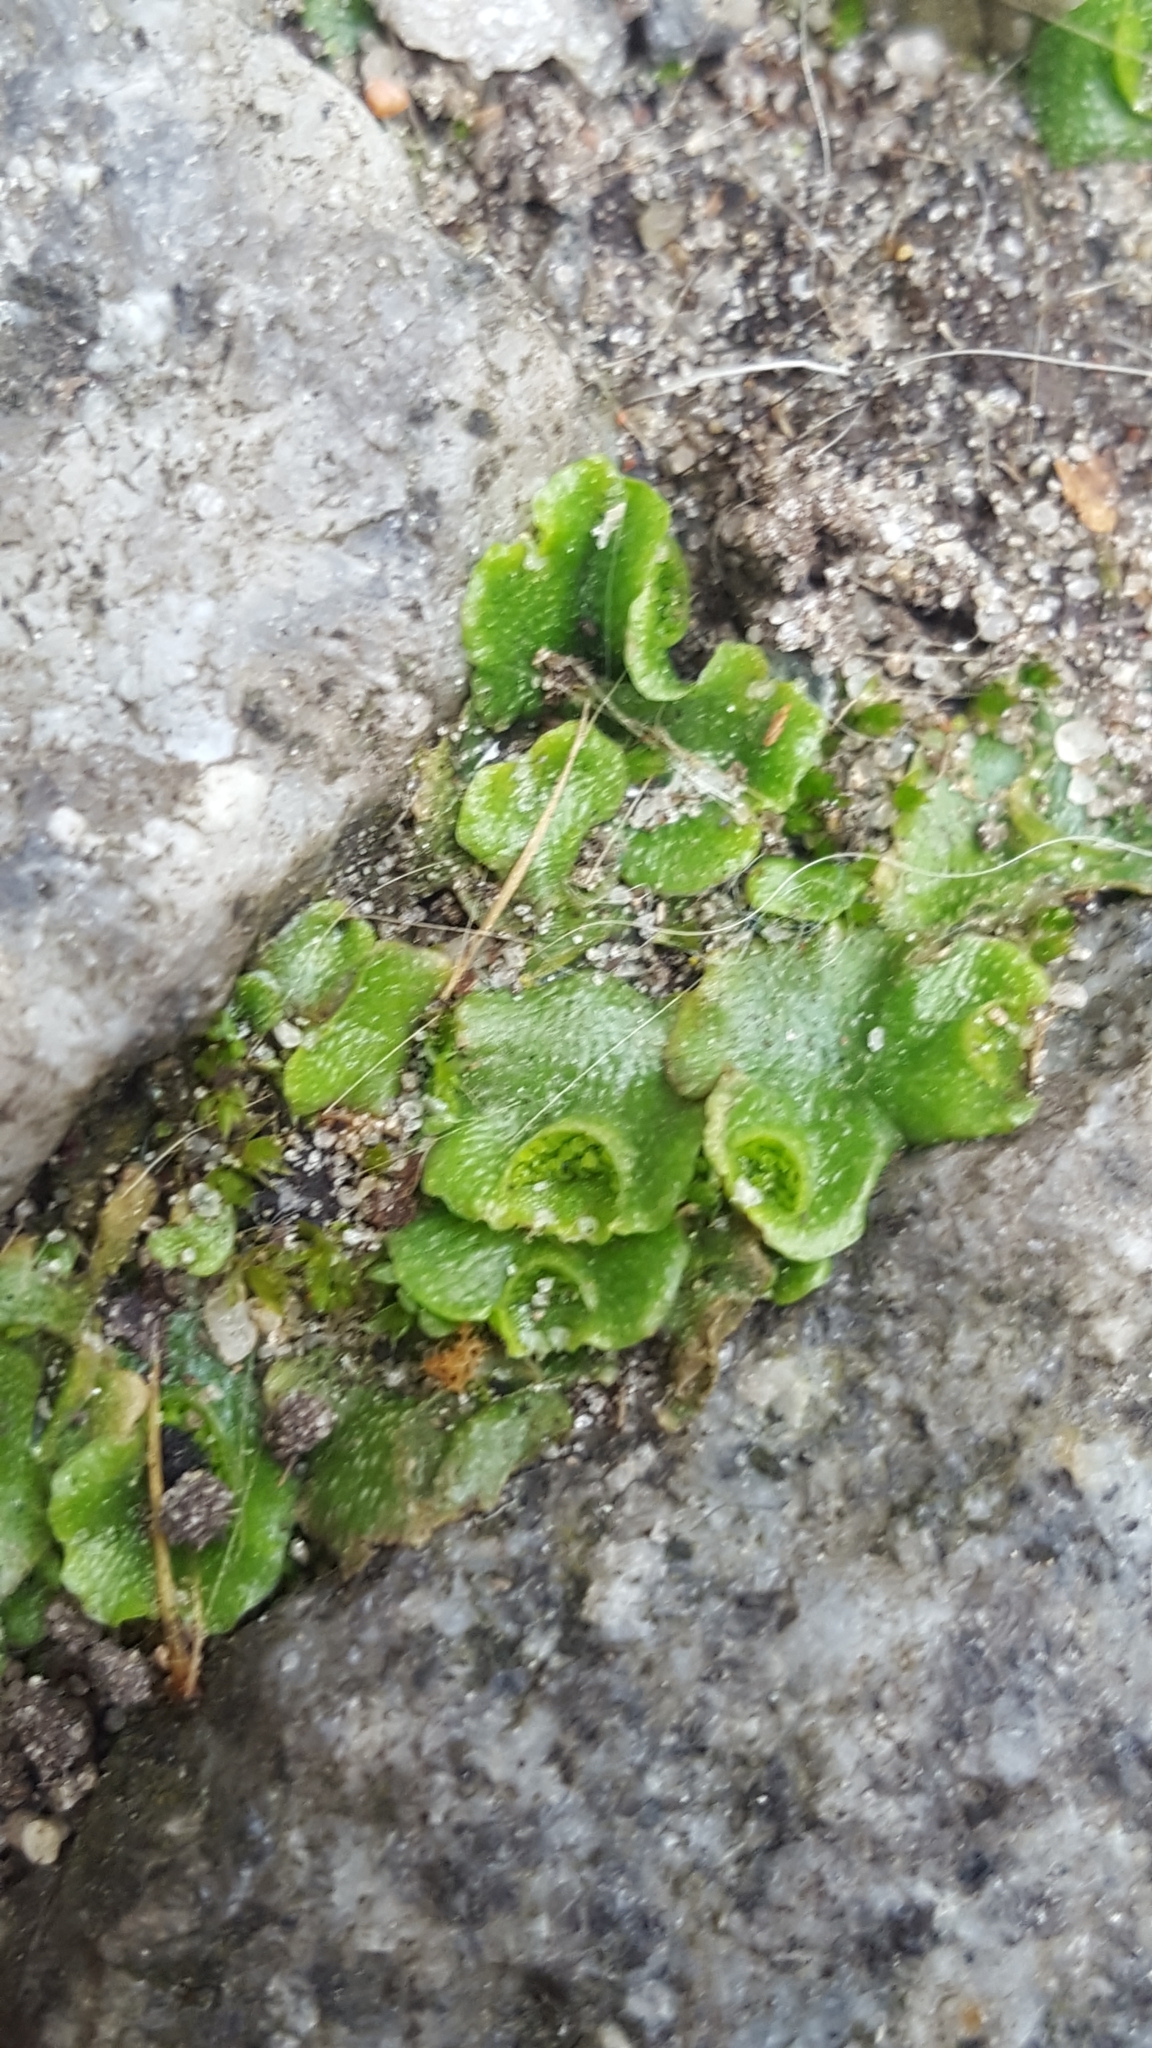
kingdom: Plantae
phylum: Marchantiophyta
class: Marchantiopsida
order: Lunulariales
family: Lunulariaceae
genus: Lunularia
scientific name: Lunularia cruciata
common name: Crescent-cup liverwort
